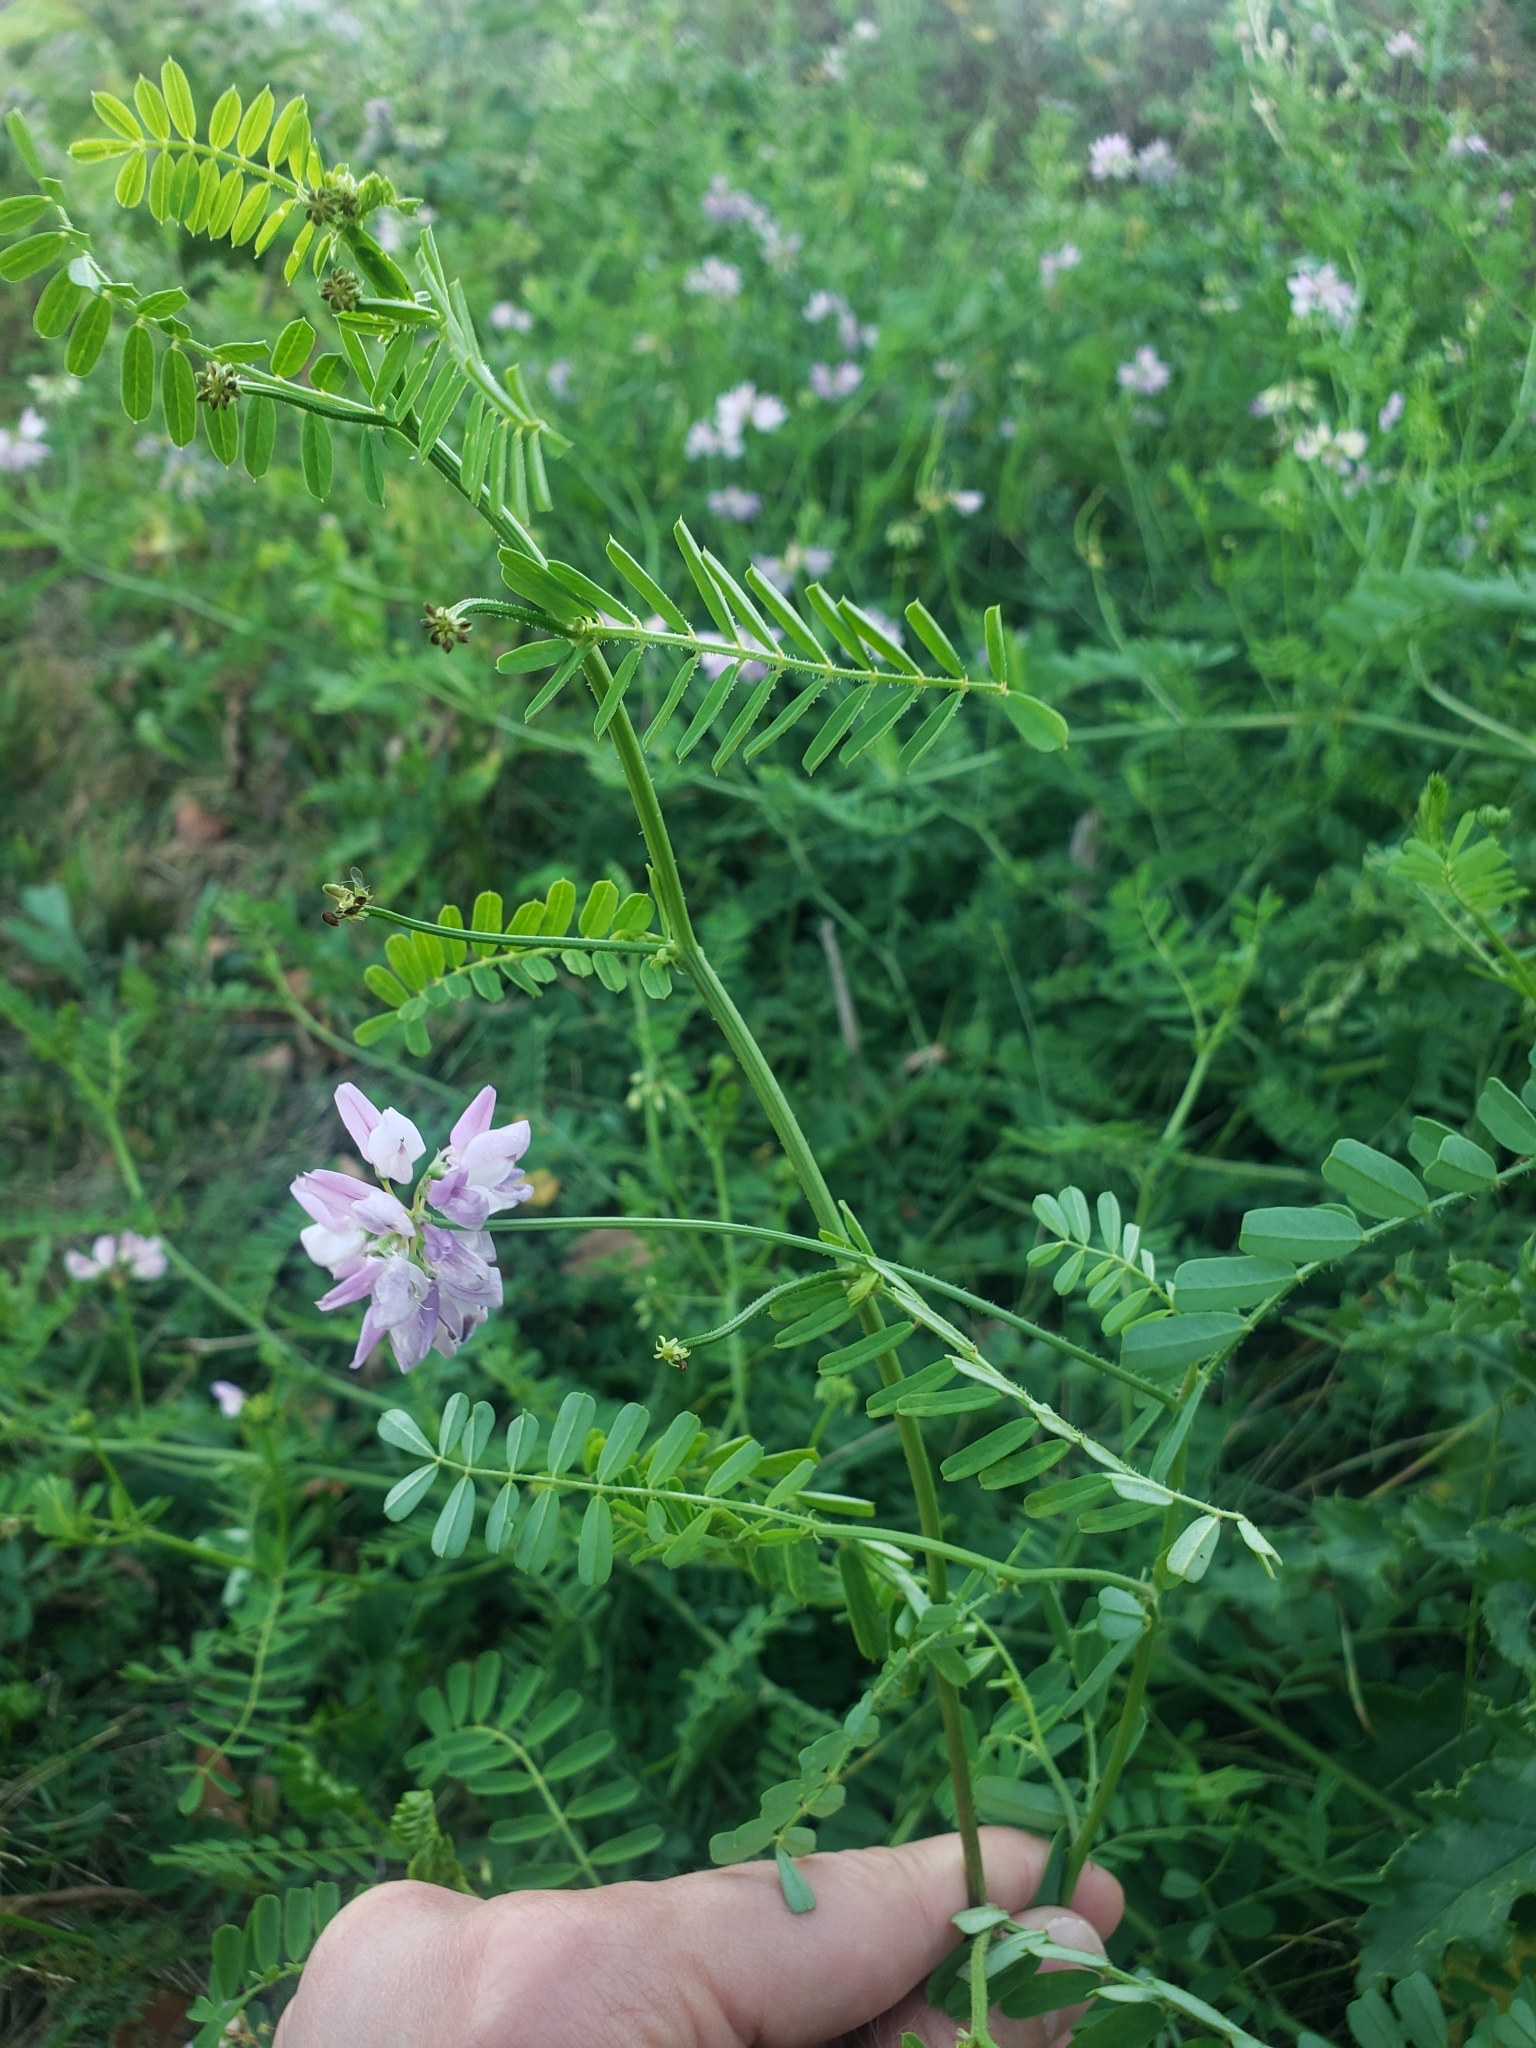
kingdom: Plantae
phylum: Tracheophyta
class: Magnoliopsida
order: Fabales
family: Fabaceae
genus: Coronilla
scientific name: Coronilla varia
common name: Crownvetch
